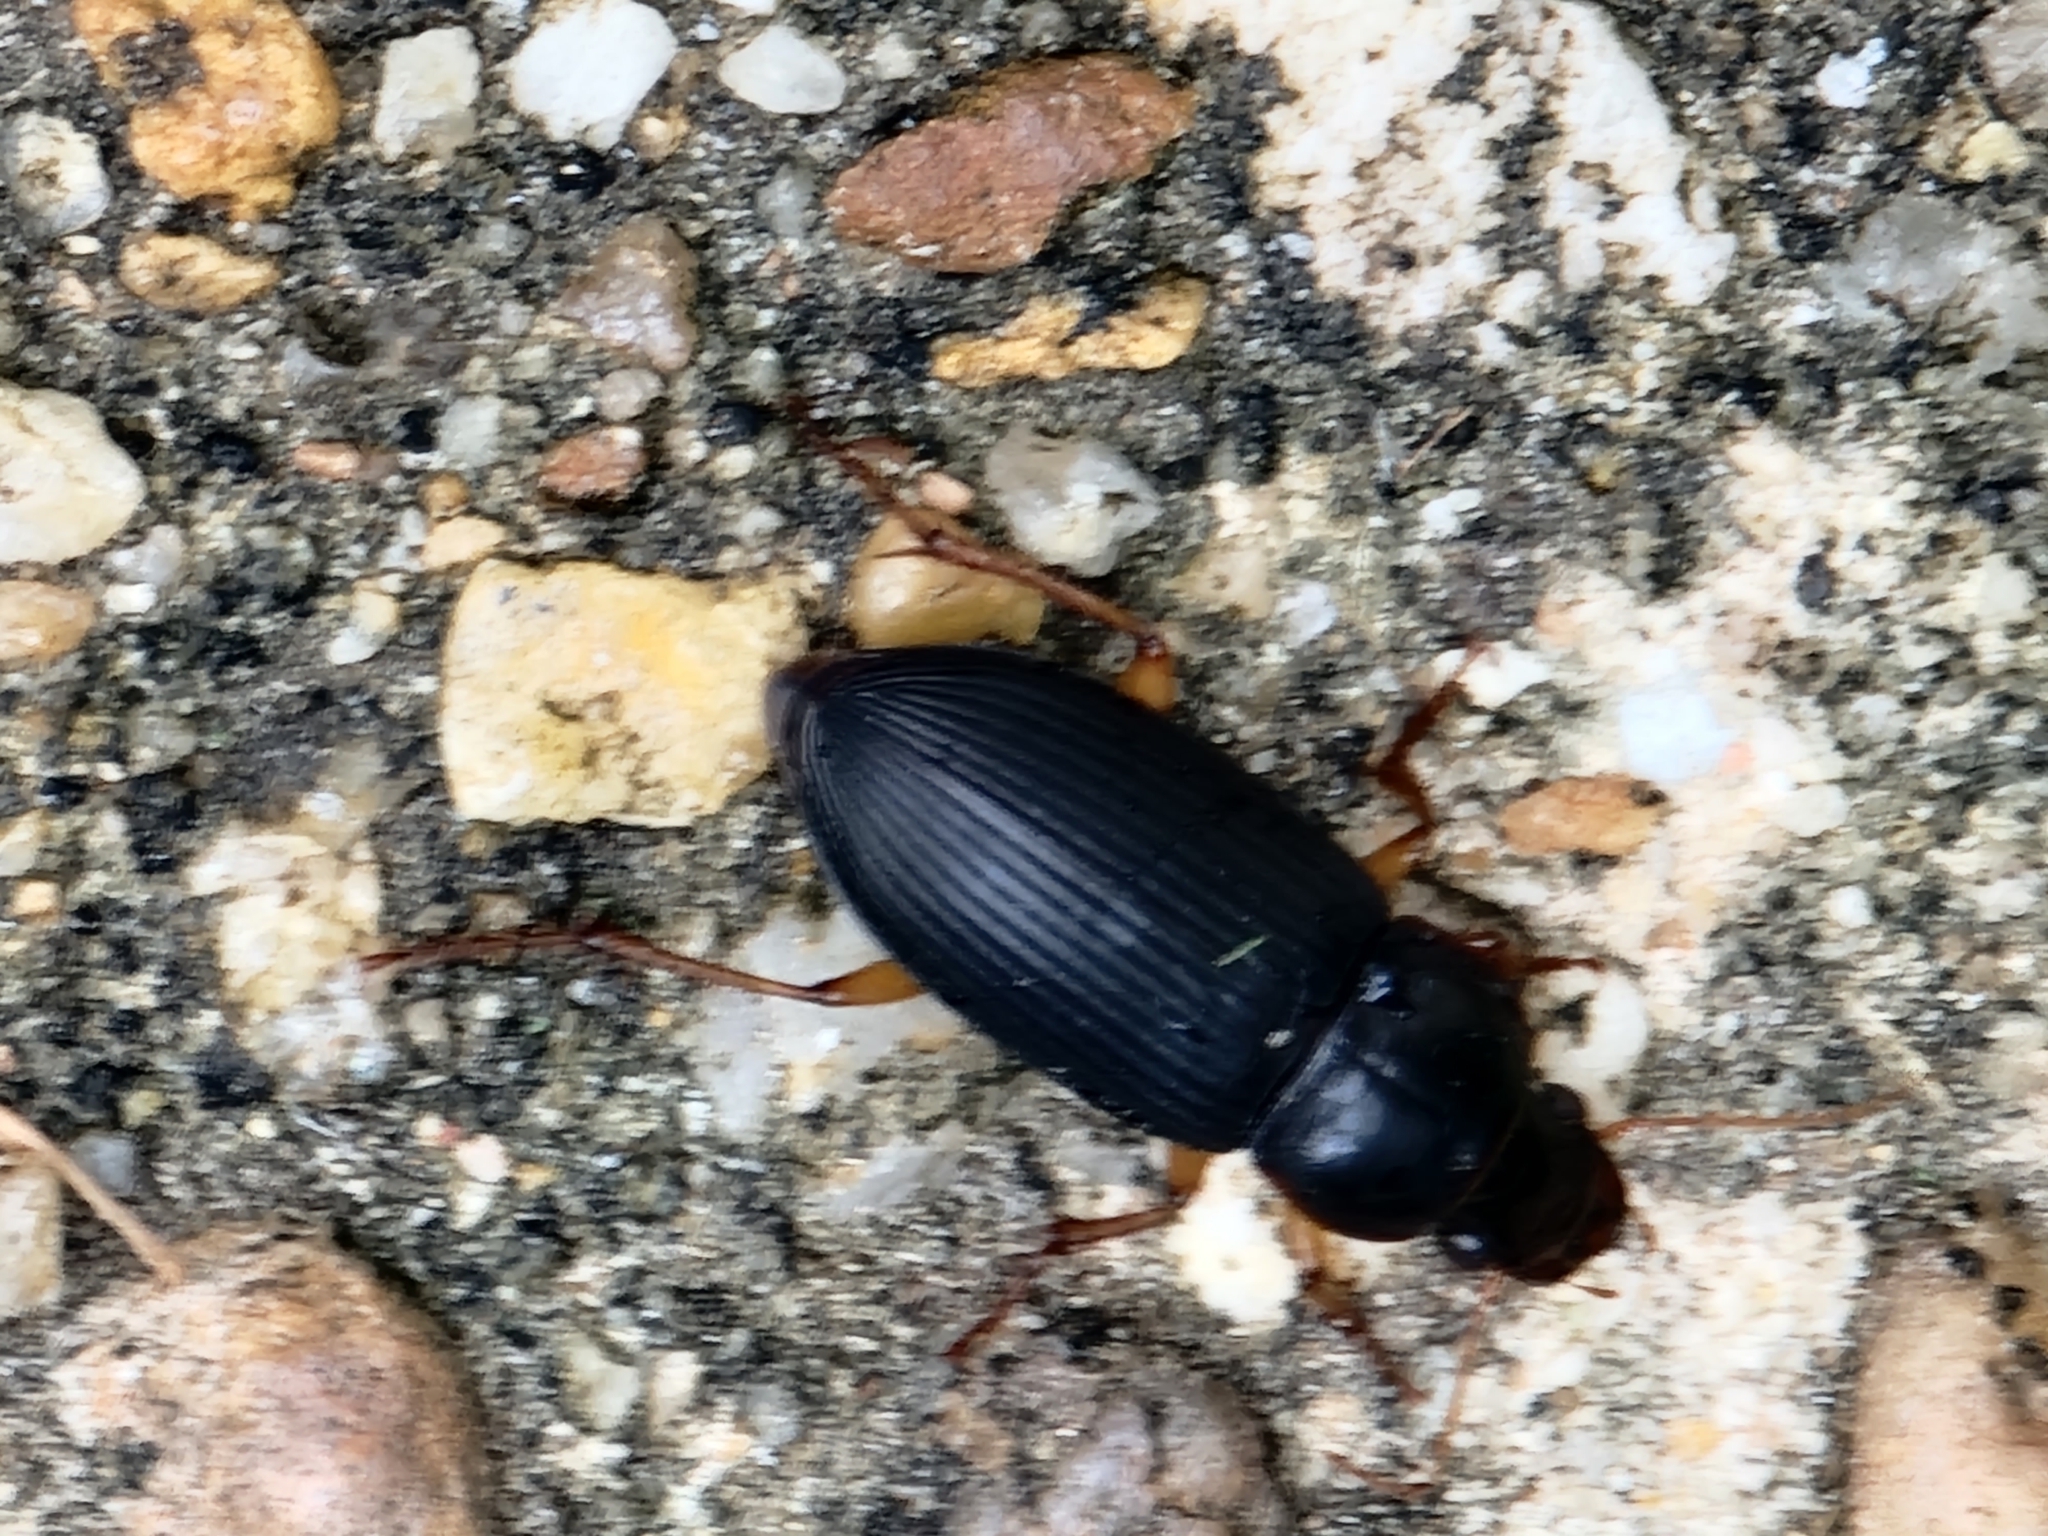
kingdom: Animalia
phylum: Arthropoda
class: Insecta
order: Coleoptera
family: Carabidae
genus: Harpalus
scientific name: Harpalus pensylvanicus
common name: Pennsylvania dingy ground beetle
